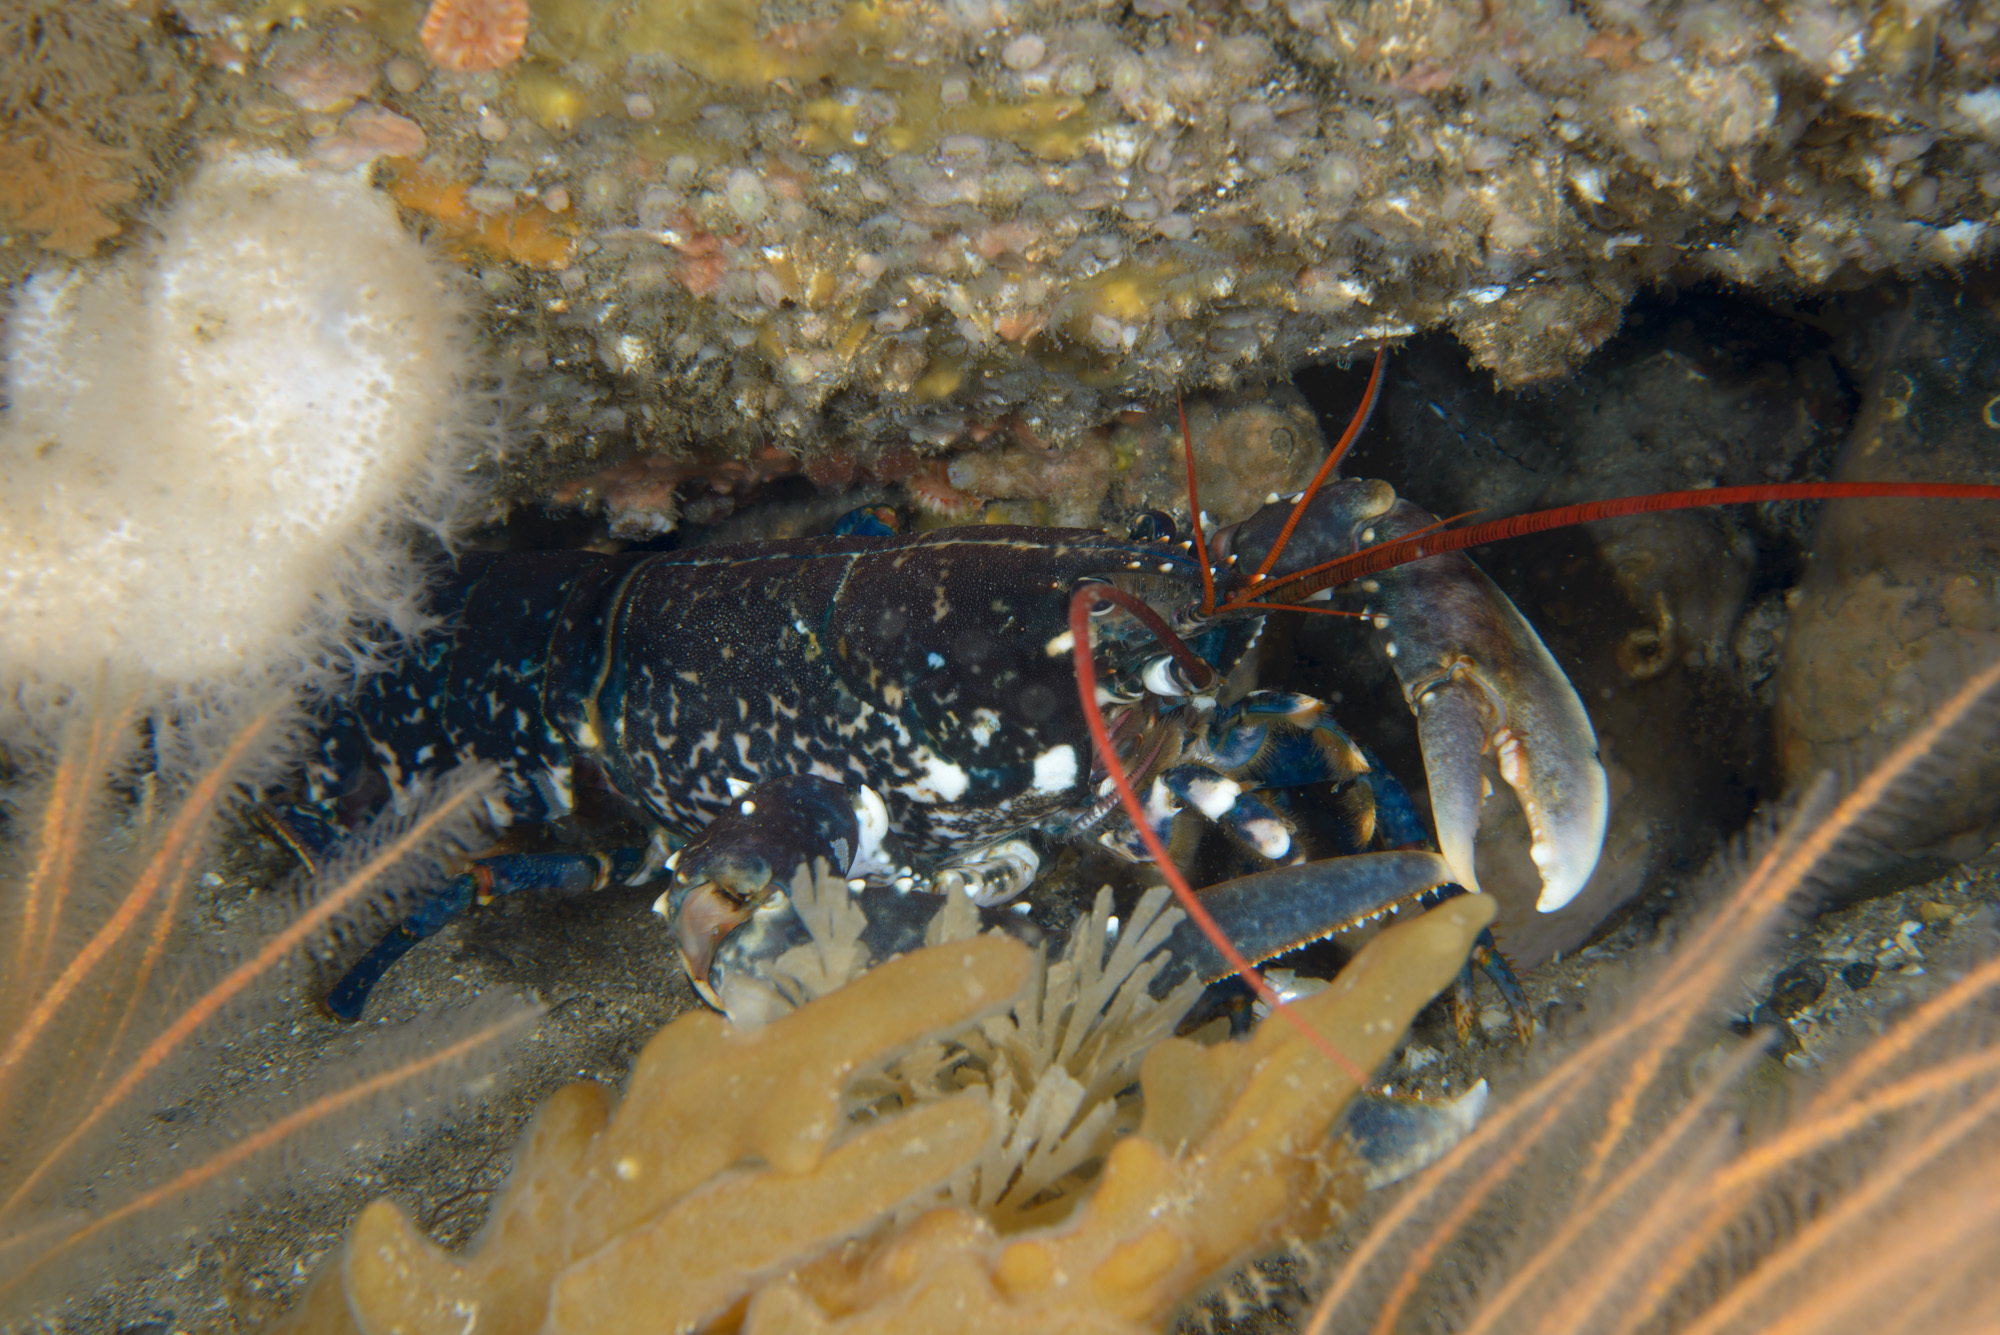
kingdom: Animalia
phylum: Arthropoda
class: Malacostraca
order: Decapoda
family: Nephropidae
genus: Homarus
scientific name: Homarus gammarus
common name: European lobster
